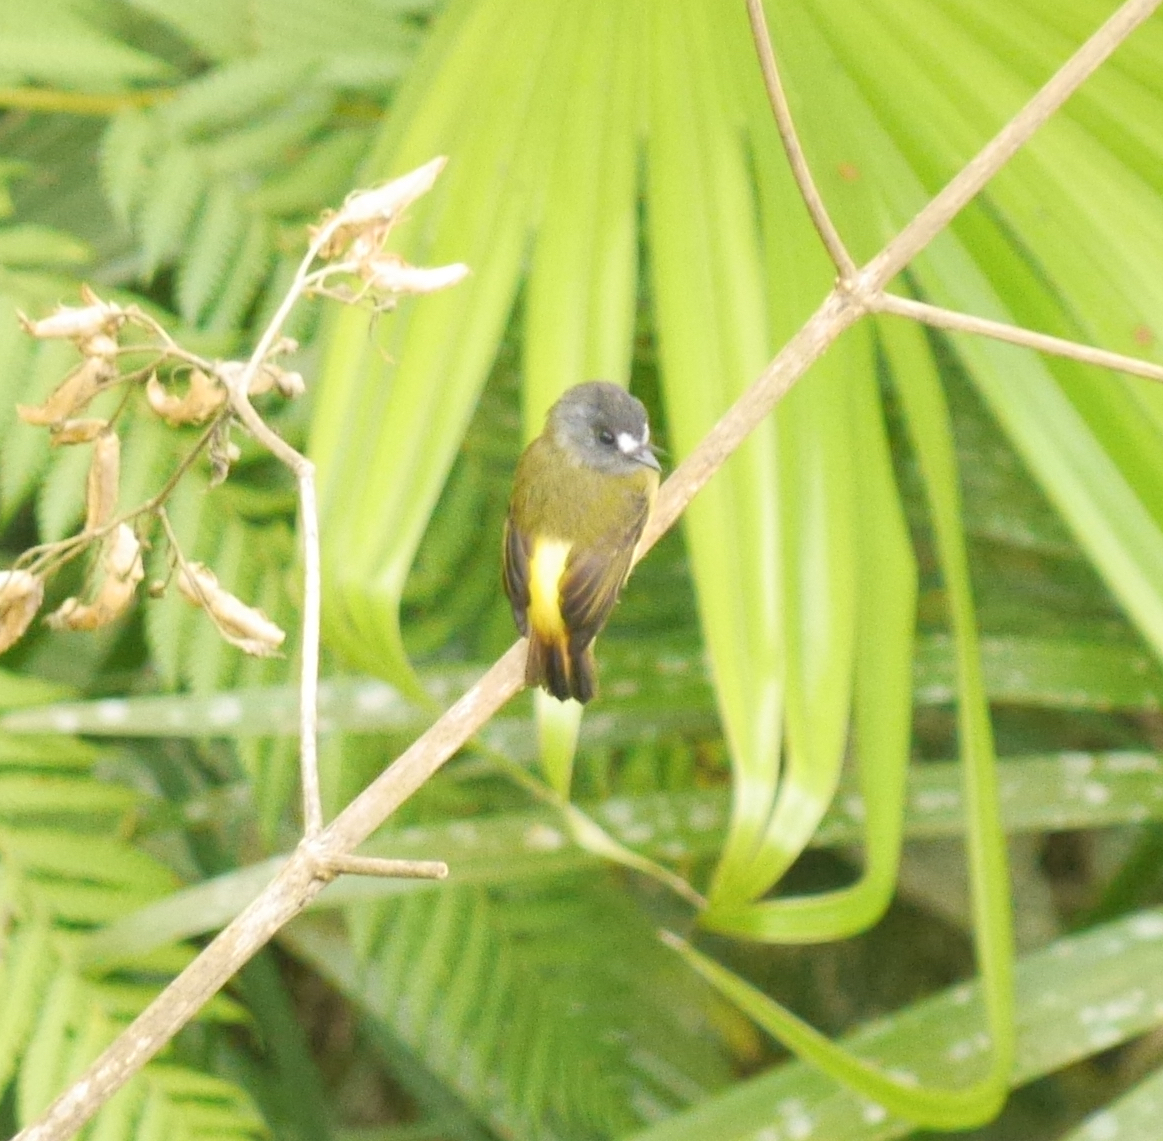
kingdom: Animalia
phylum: Chordata
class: Aves
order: Passeriformes
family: Tyrannidae
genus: Myiotriccus
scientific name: Myiotriccus ornatus
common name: Ornate flycatcher
